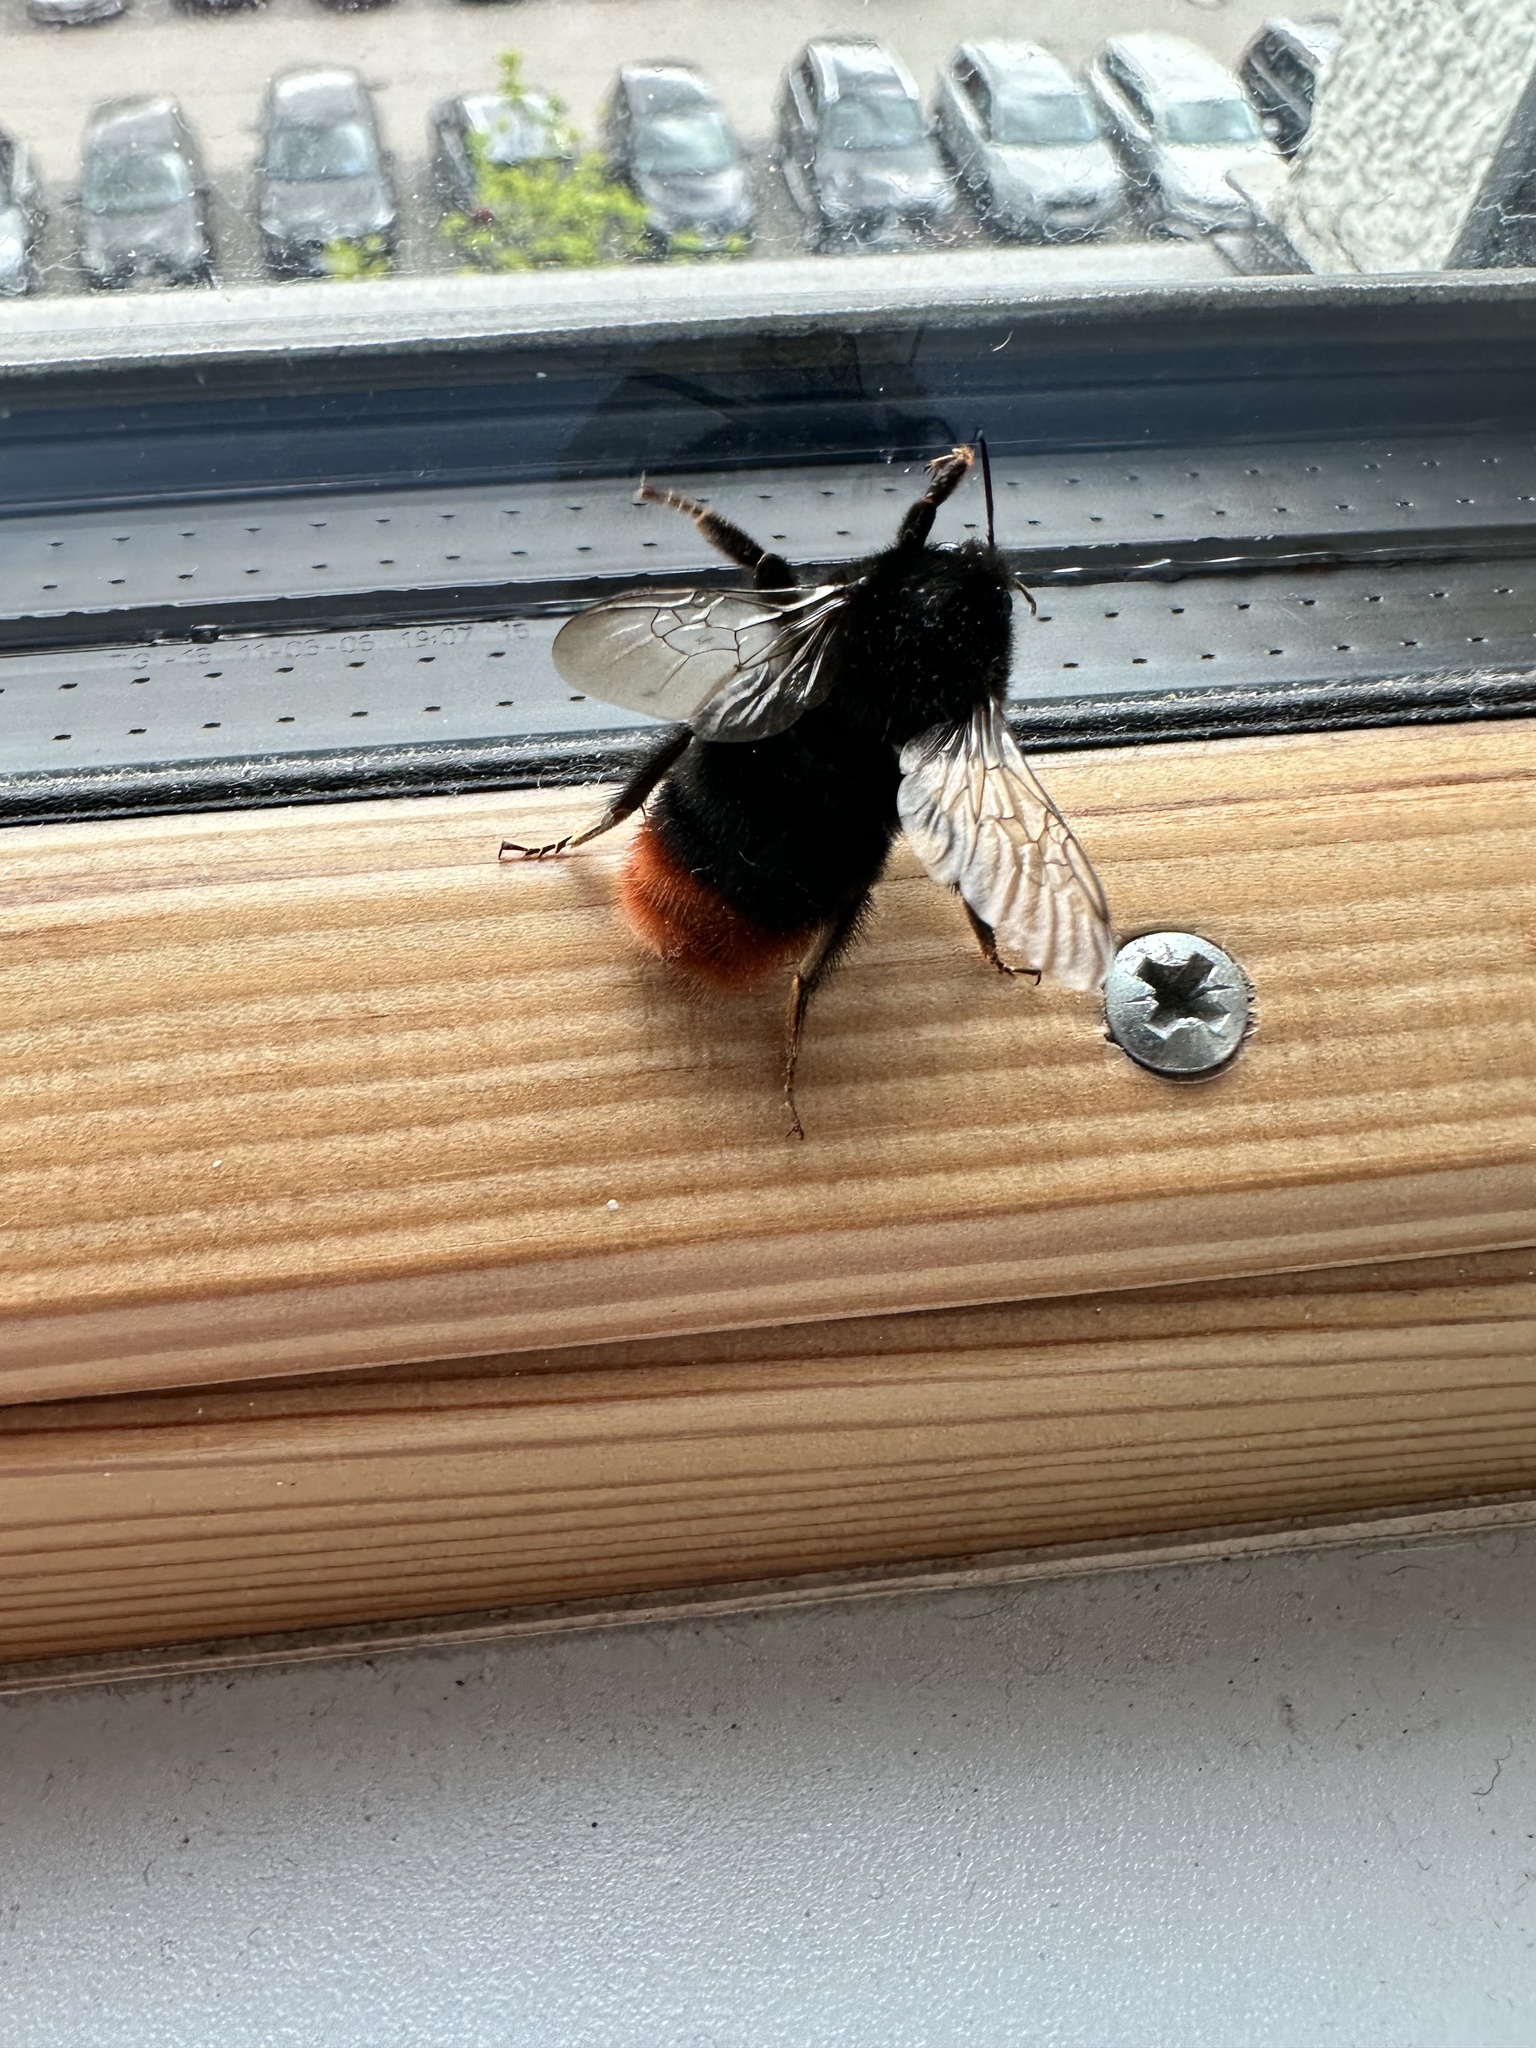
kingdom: Animalia
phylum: Arthropoda
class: Insecta
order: Hymenoptera
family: Apidae
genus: Bombus
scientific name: Bombus lapidarius
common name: Large red-tailed humble-bee
